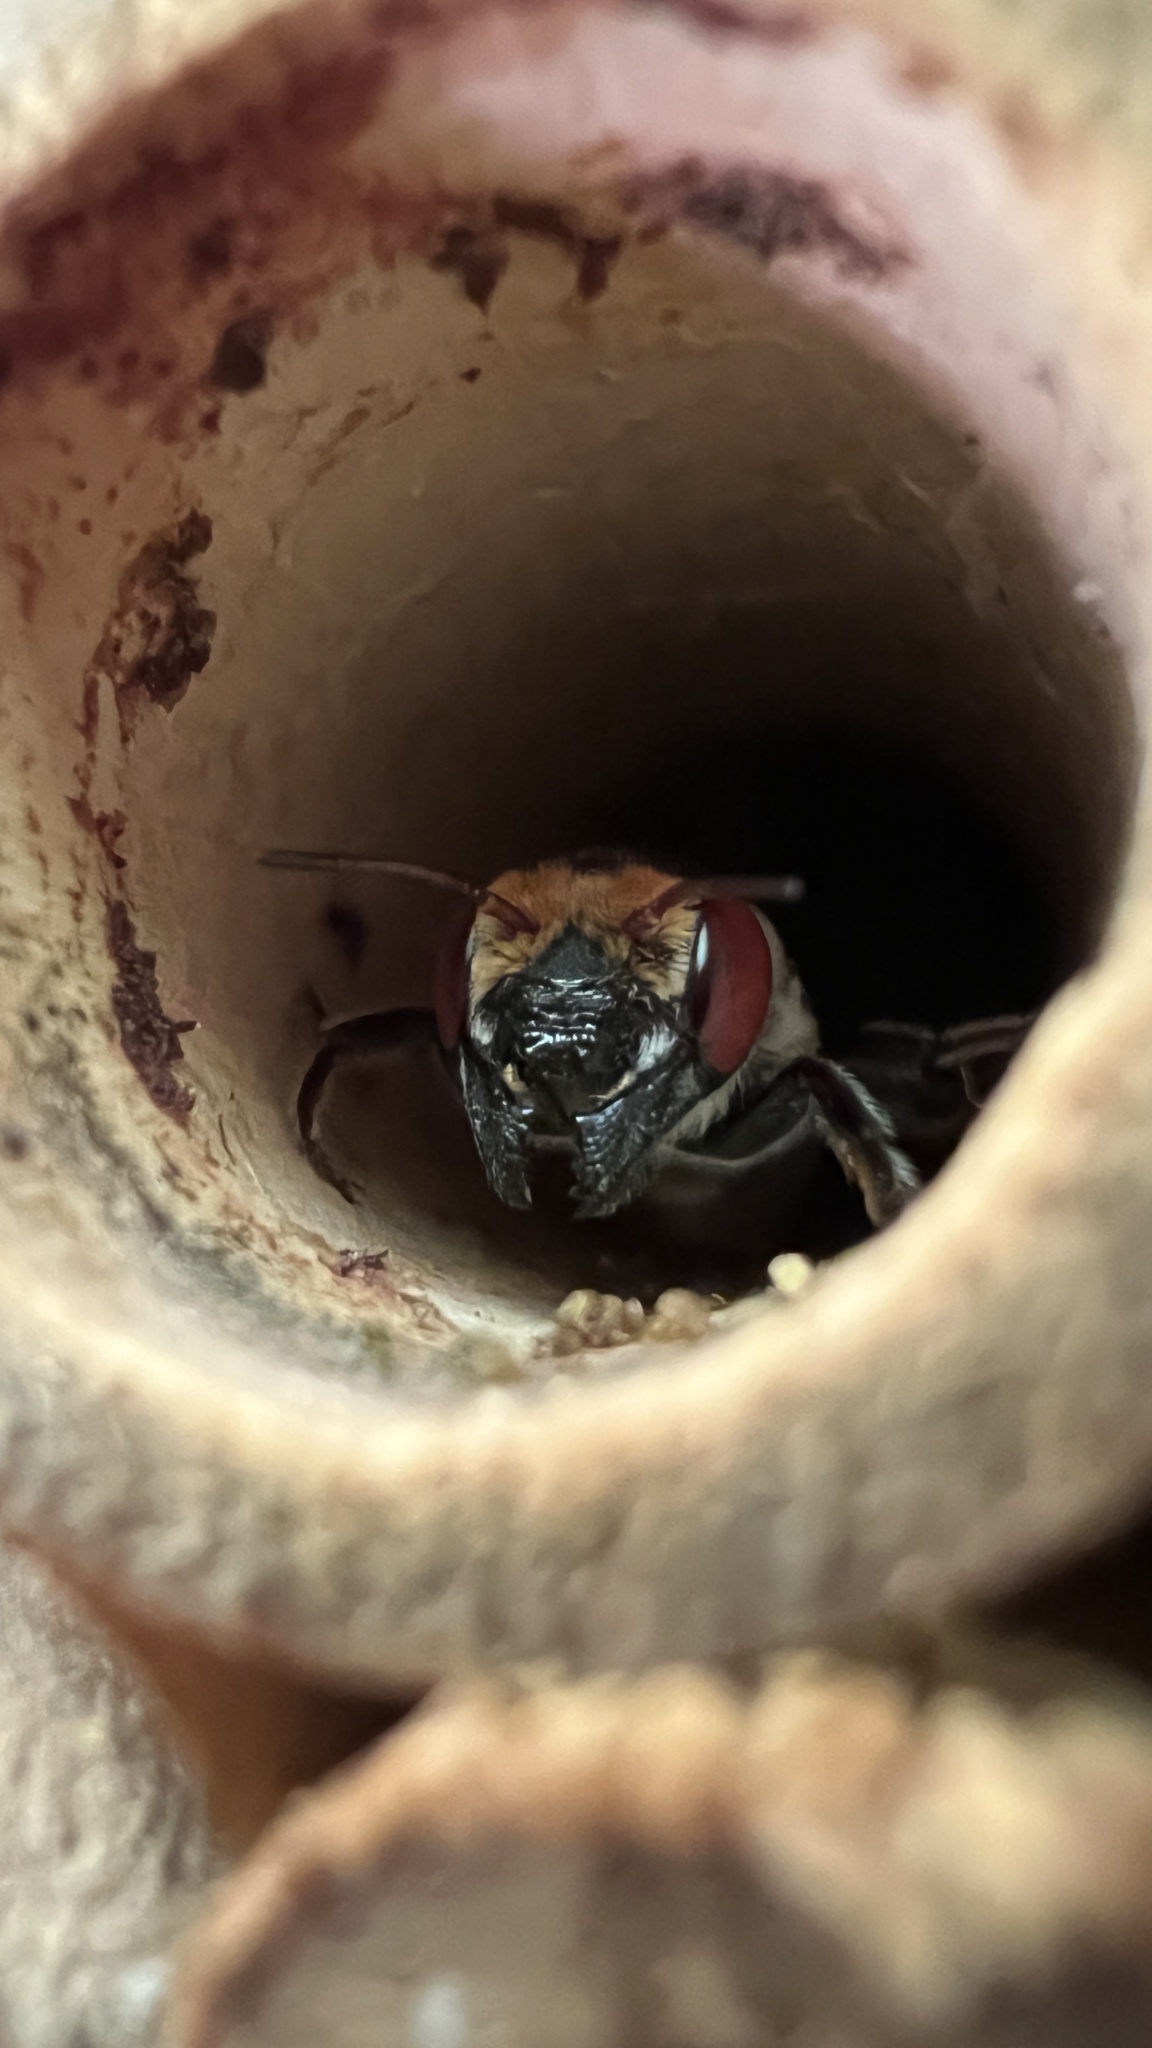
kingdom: Animalia
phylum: Arthropoda
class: Insecta
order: Hymenoptera
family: Megachilidae
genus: Megachile
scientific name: Megachile aurifrons
